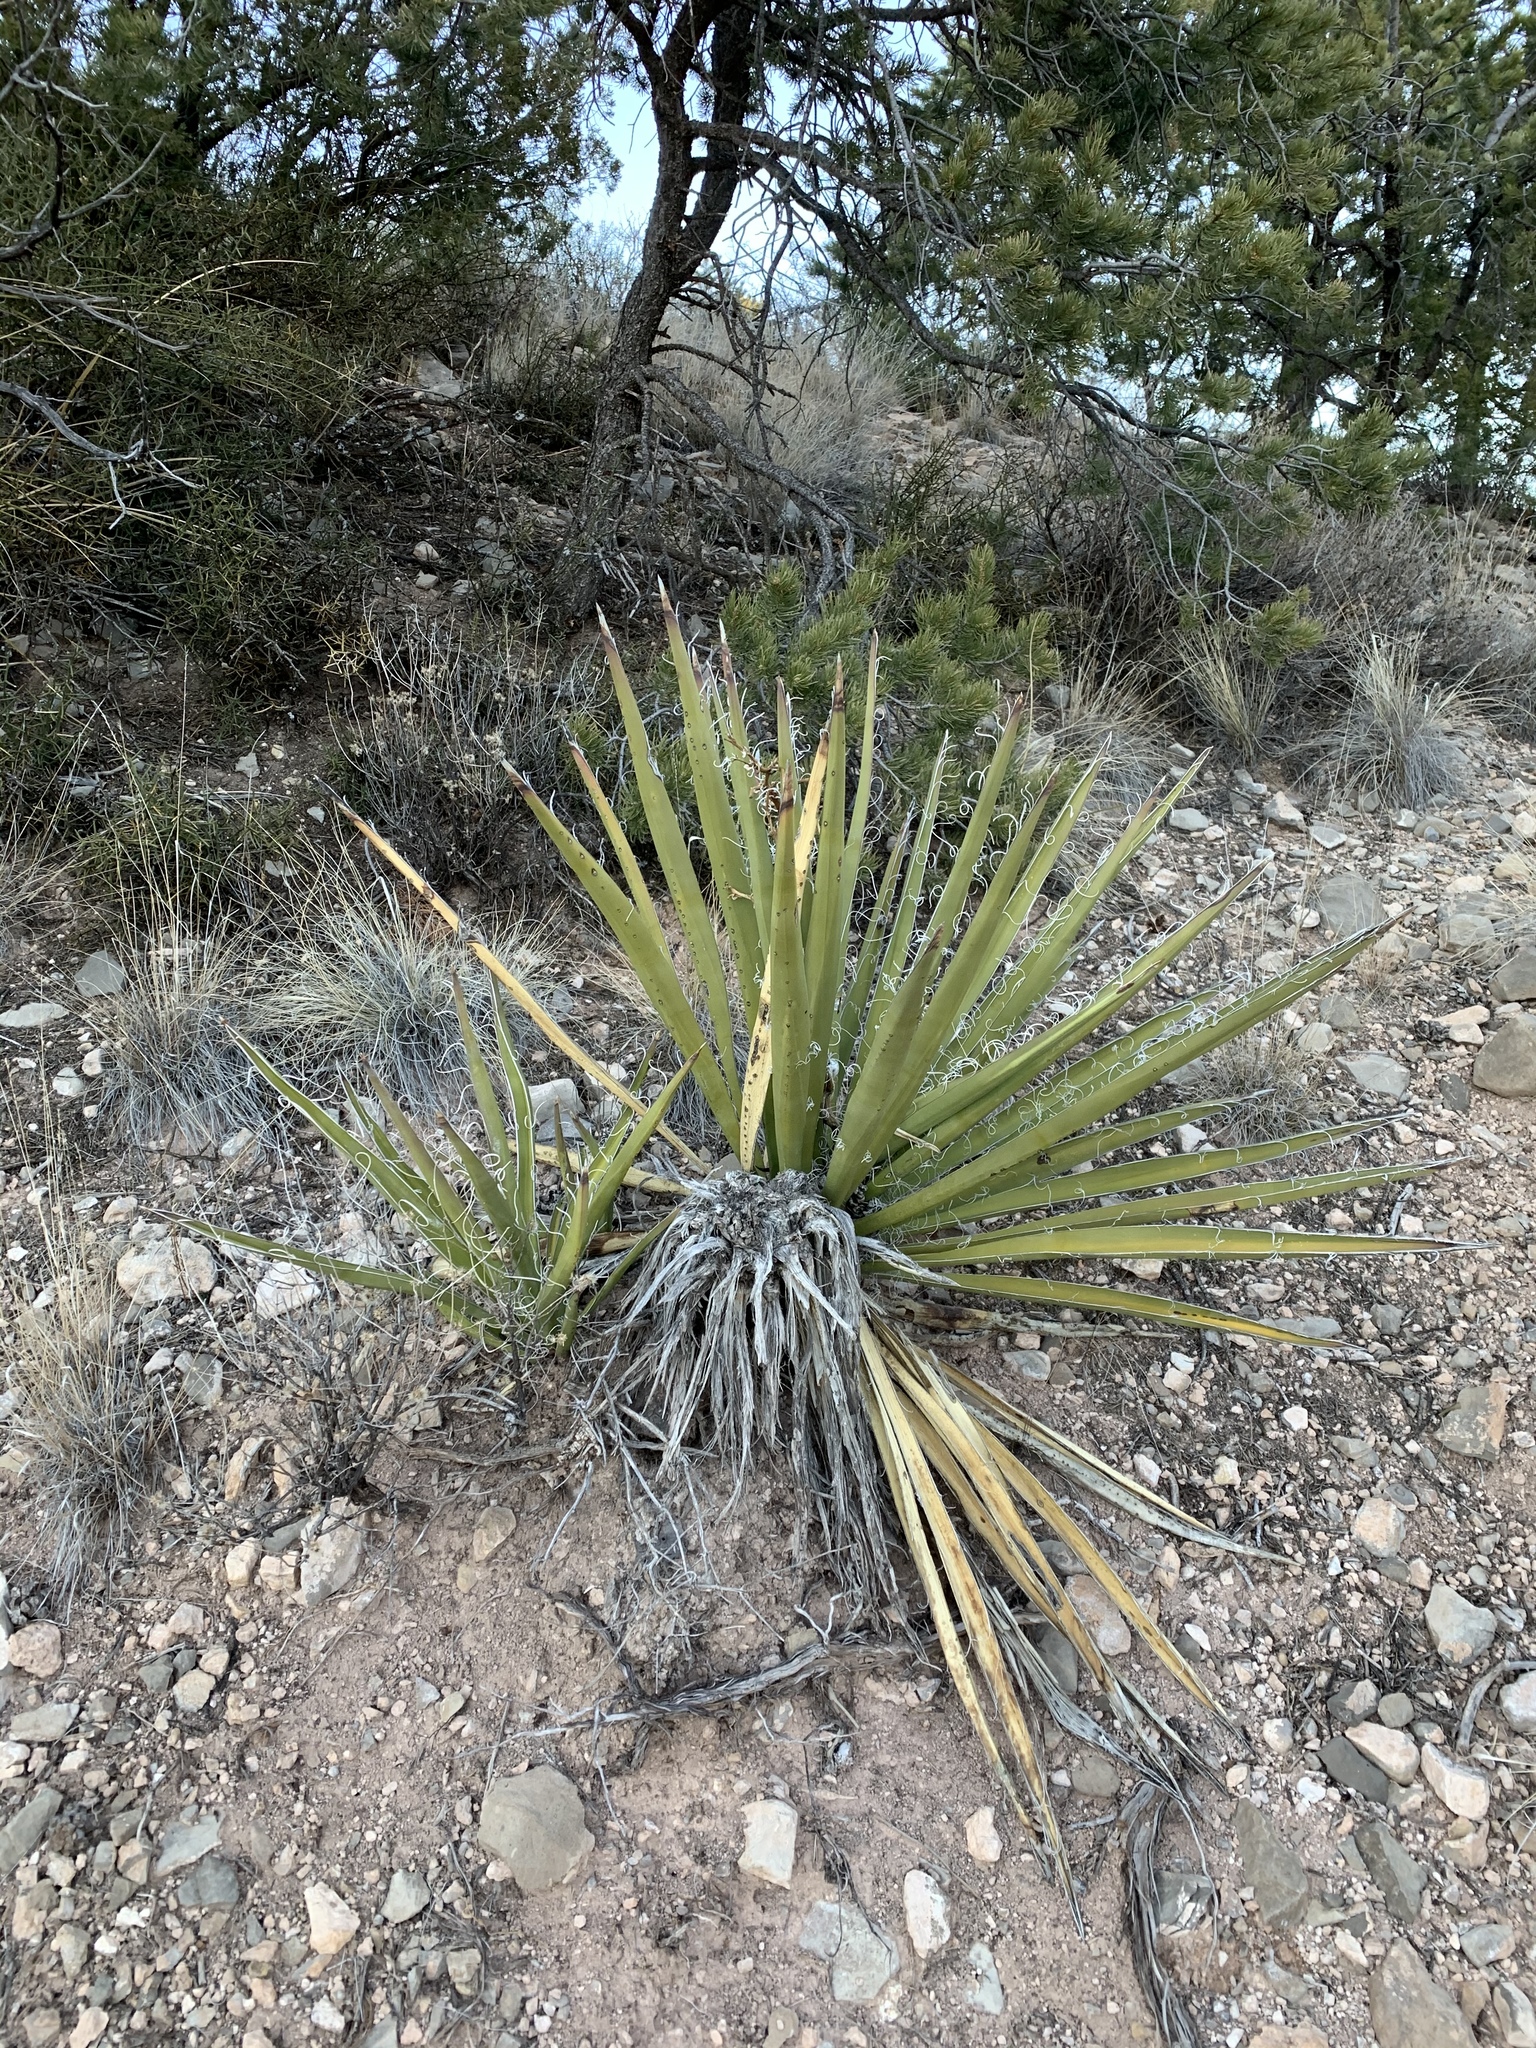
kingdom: Plantae
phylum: Tracheophyta
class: Liliopsida
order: Asparagales
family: Asparagaceae
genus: Yucca
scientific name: Yucca baccata
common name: Banana yucca
